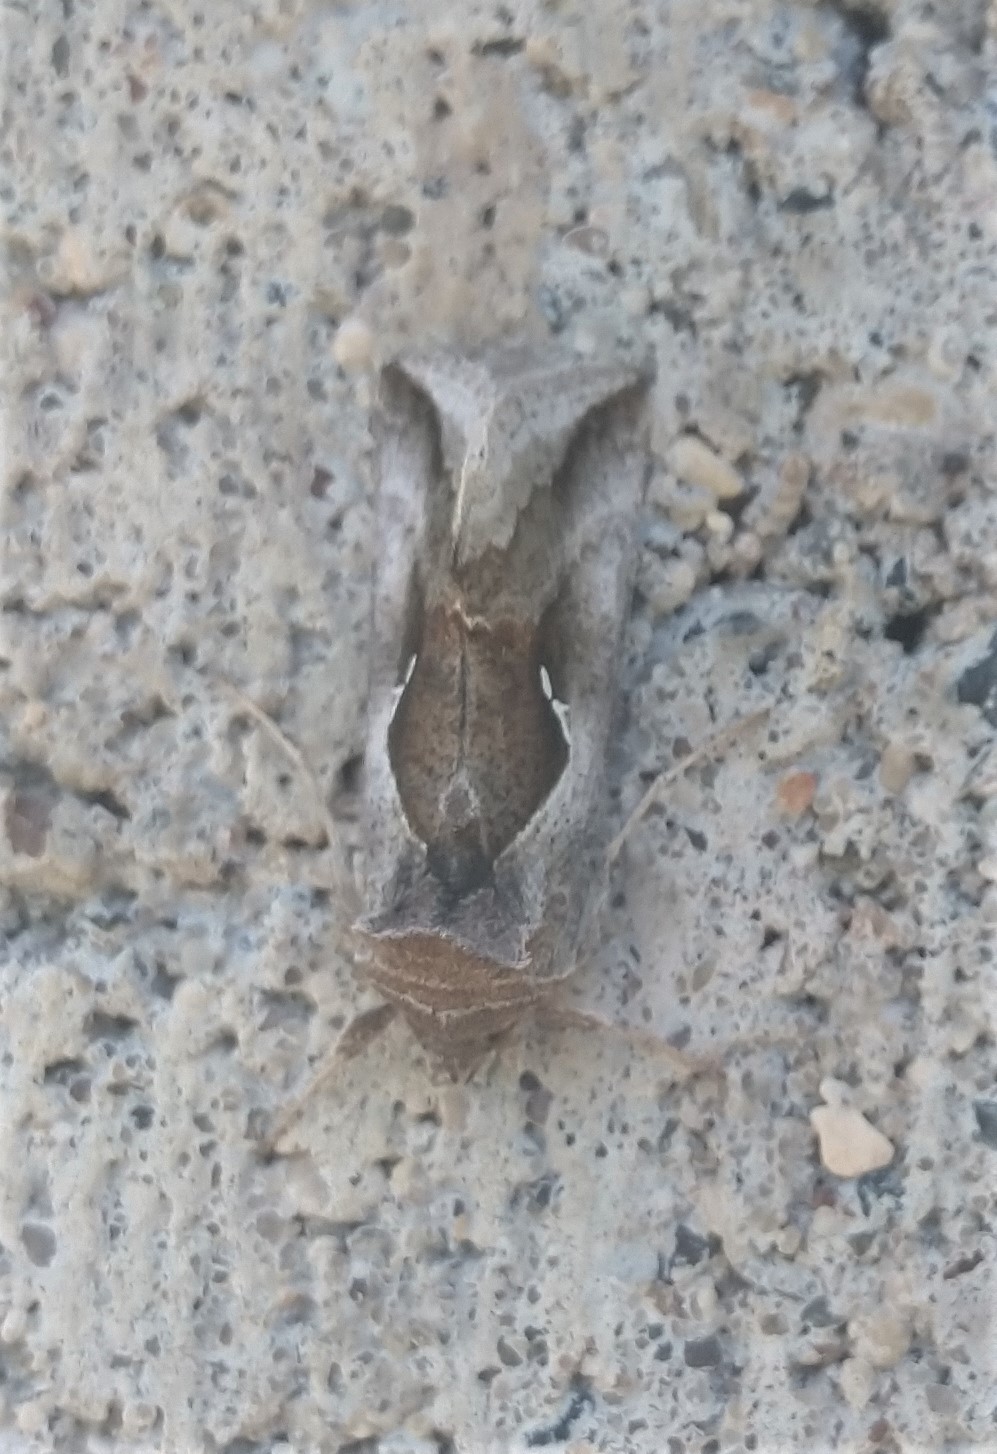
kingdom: Animalia
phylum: Arthropoda
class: Insecta
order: Lepidoptera
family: Noctuidae
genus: Anagrapha
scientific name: Anagrapha falcifera
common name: Celery looper
